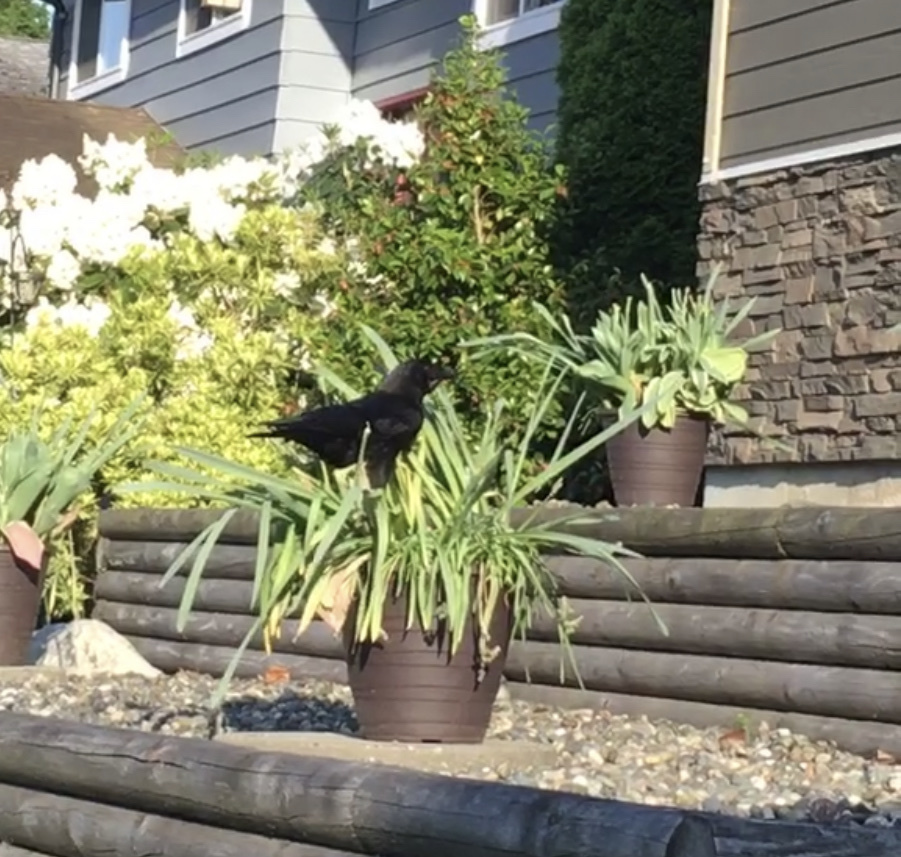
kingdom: Animalia
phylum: Chordata
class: Aves
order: Passeriformes
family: Corvidae
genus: Corvus
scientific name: Corvus brachyrhynchos
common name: American crow
